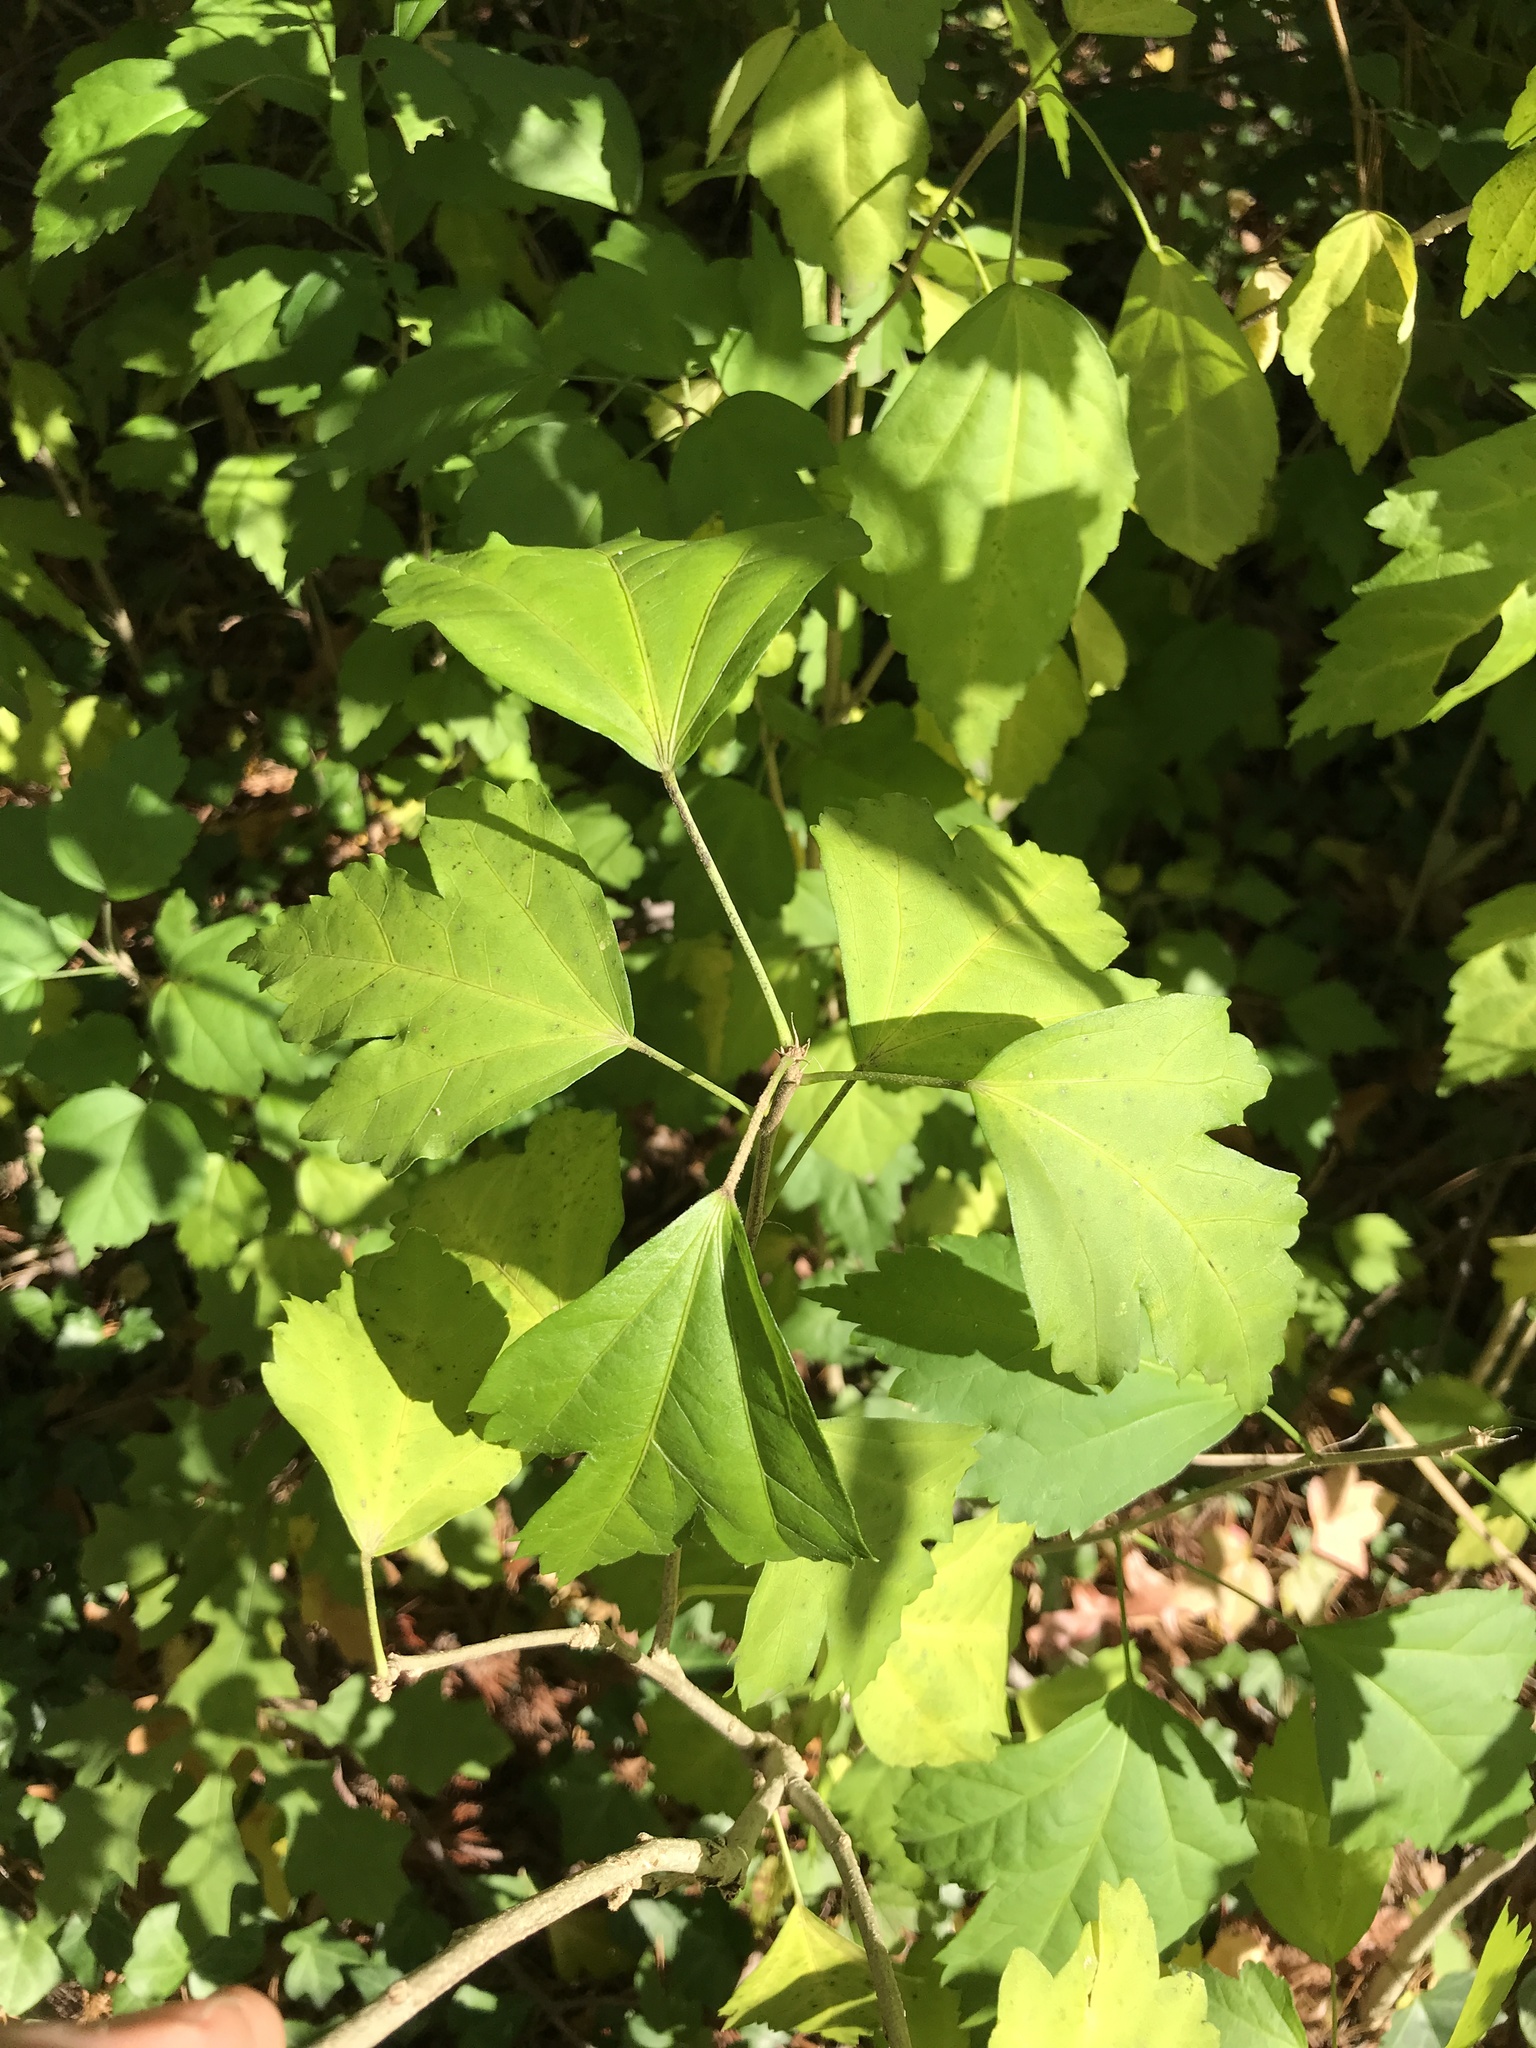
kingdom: Plantae
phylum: Tracheophyta
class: Magnoliopsida
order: Malvales
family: Malvaceae
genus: Hibiscus
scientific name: Hibiscus syriacus
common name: Syrian ketmia
